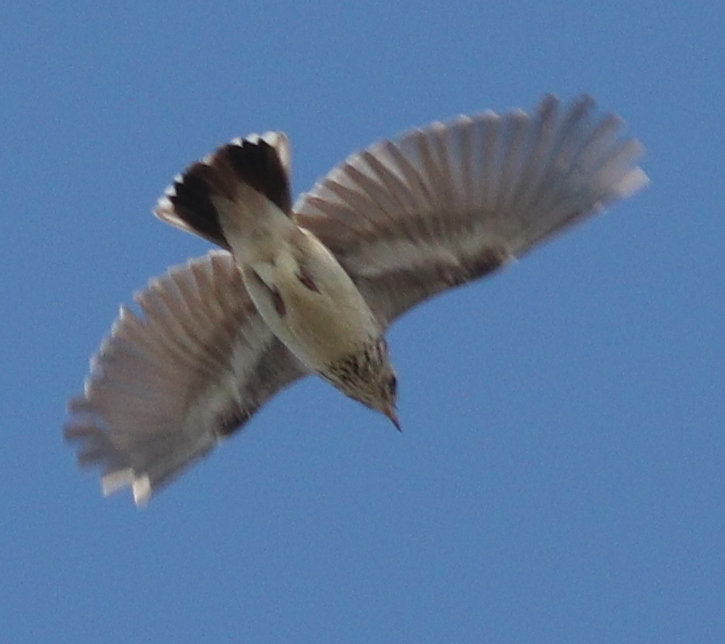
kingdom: Animalia
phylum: Chordata
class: Aves
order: Passeriformes
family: Alaudidae
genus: Lullula
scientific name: Lullula arborea
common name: Woodlark
